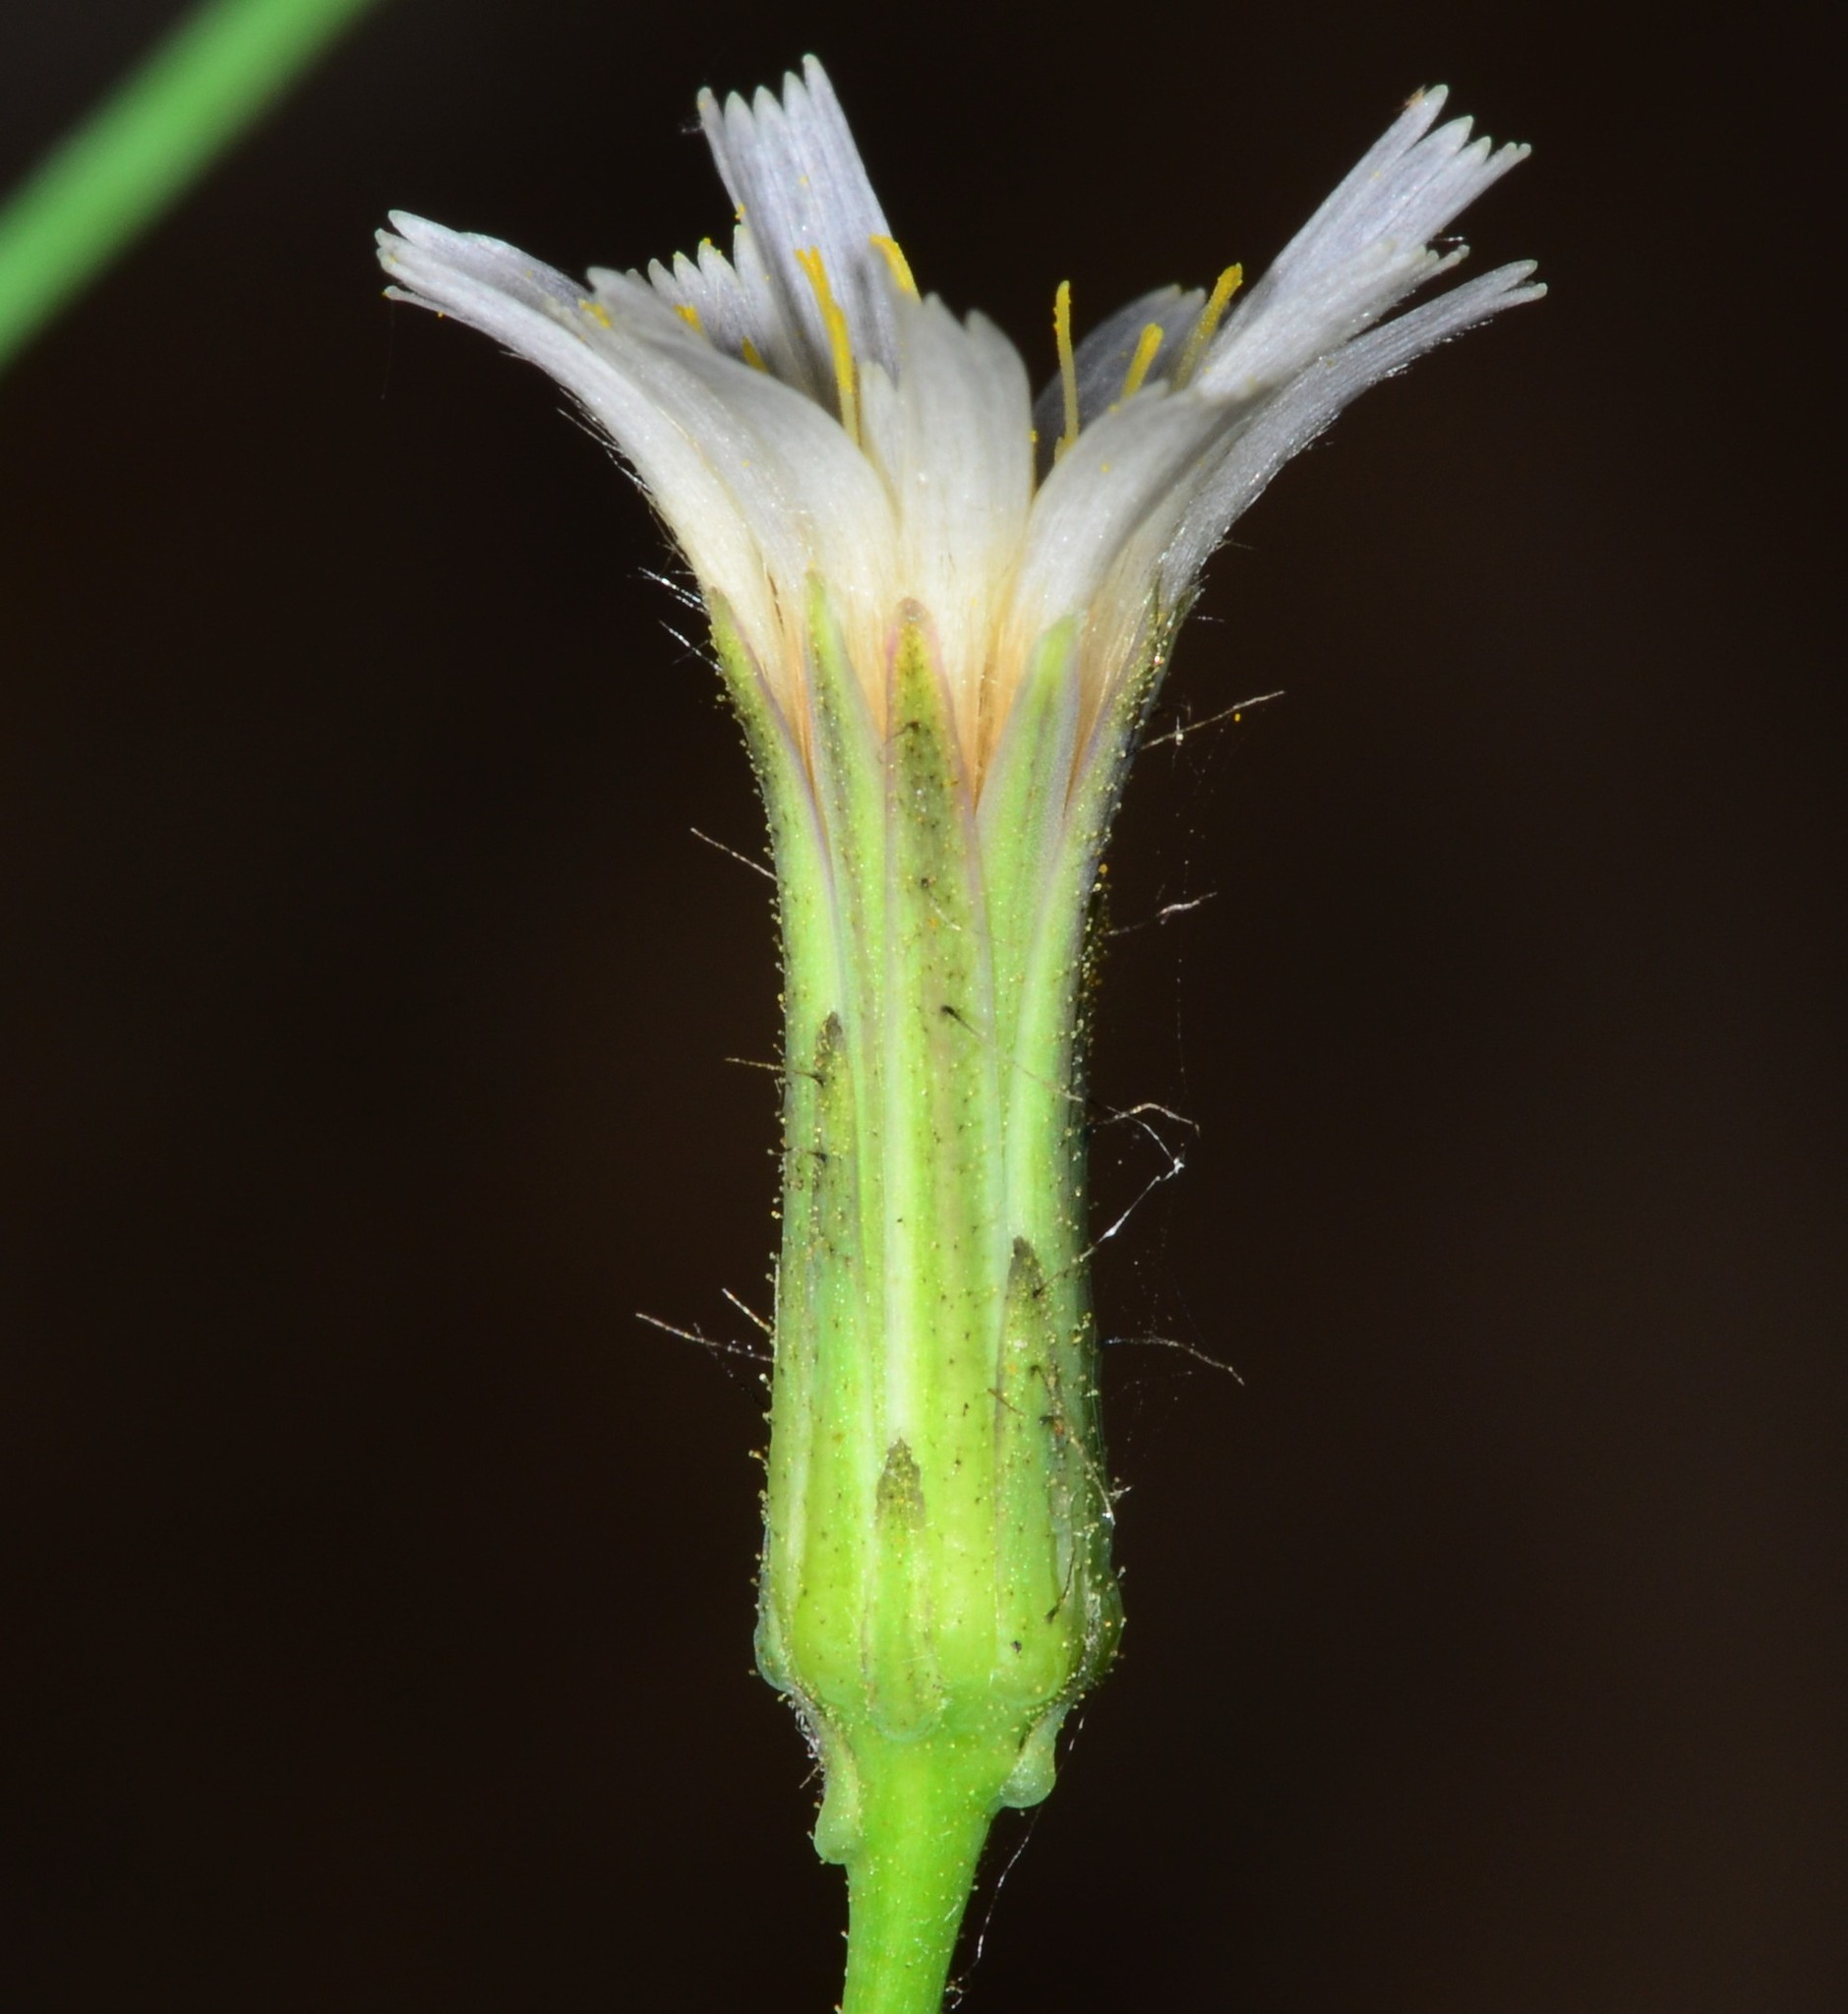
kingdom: Plantae
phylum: Tracheophyta
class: Magnoliopsida
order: Asterales
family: Asteraceae
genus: Hieracium
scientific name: Hieracium albiflorum
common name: White hawkweed
